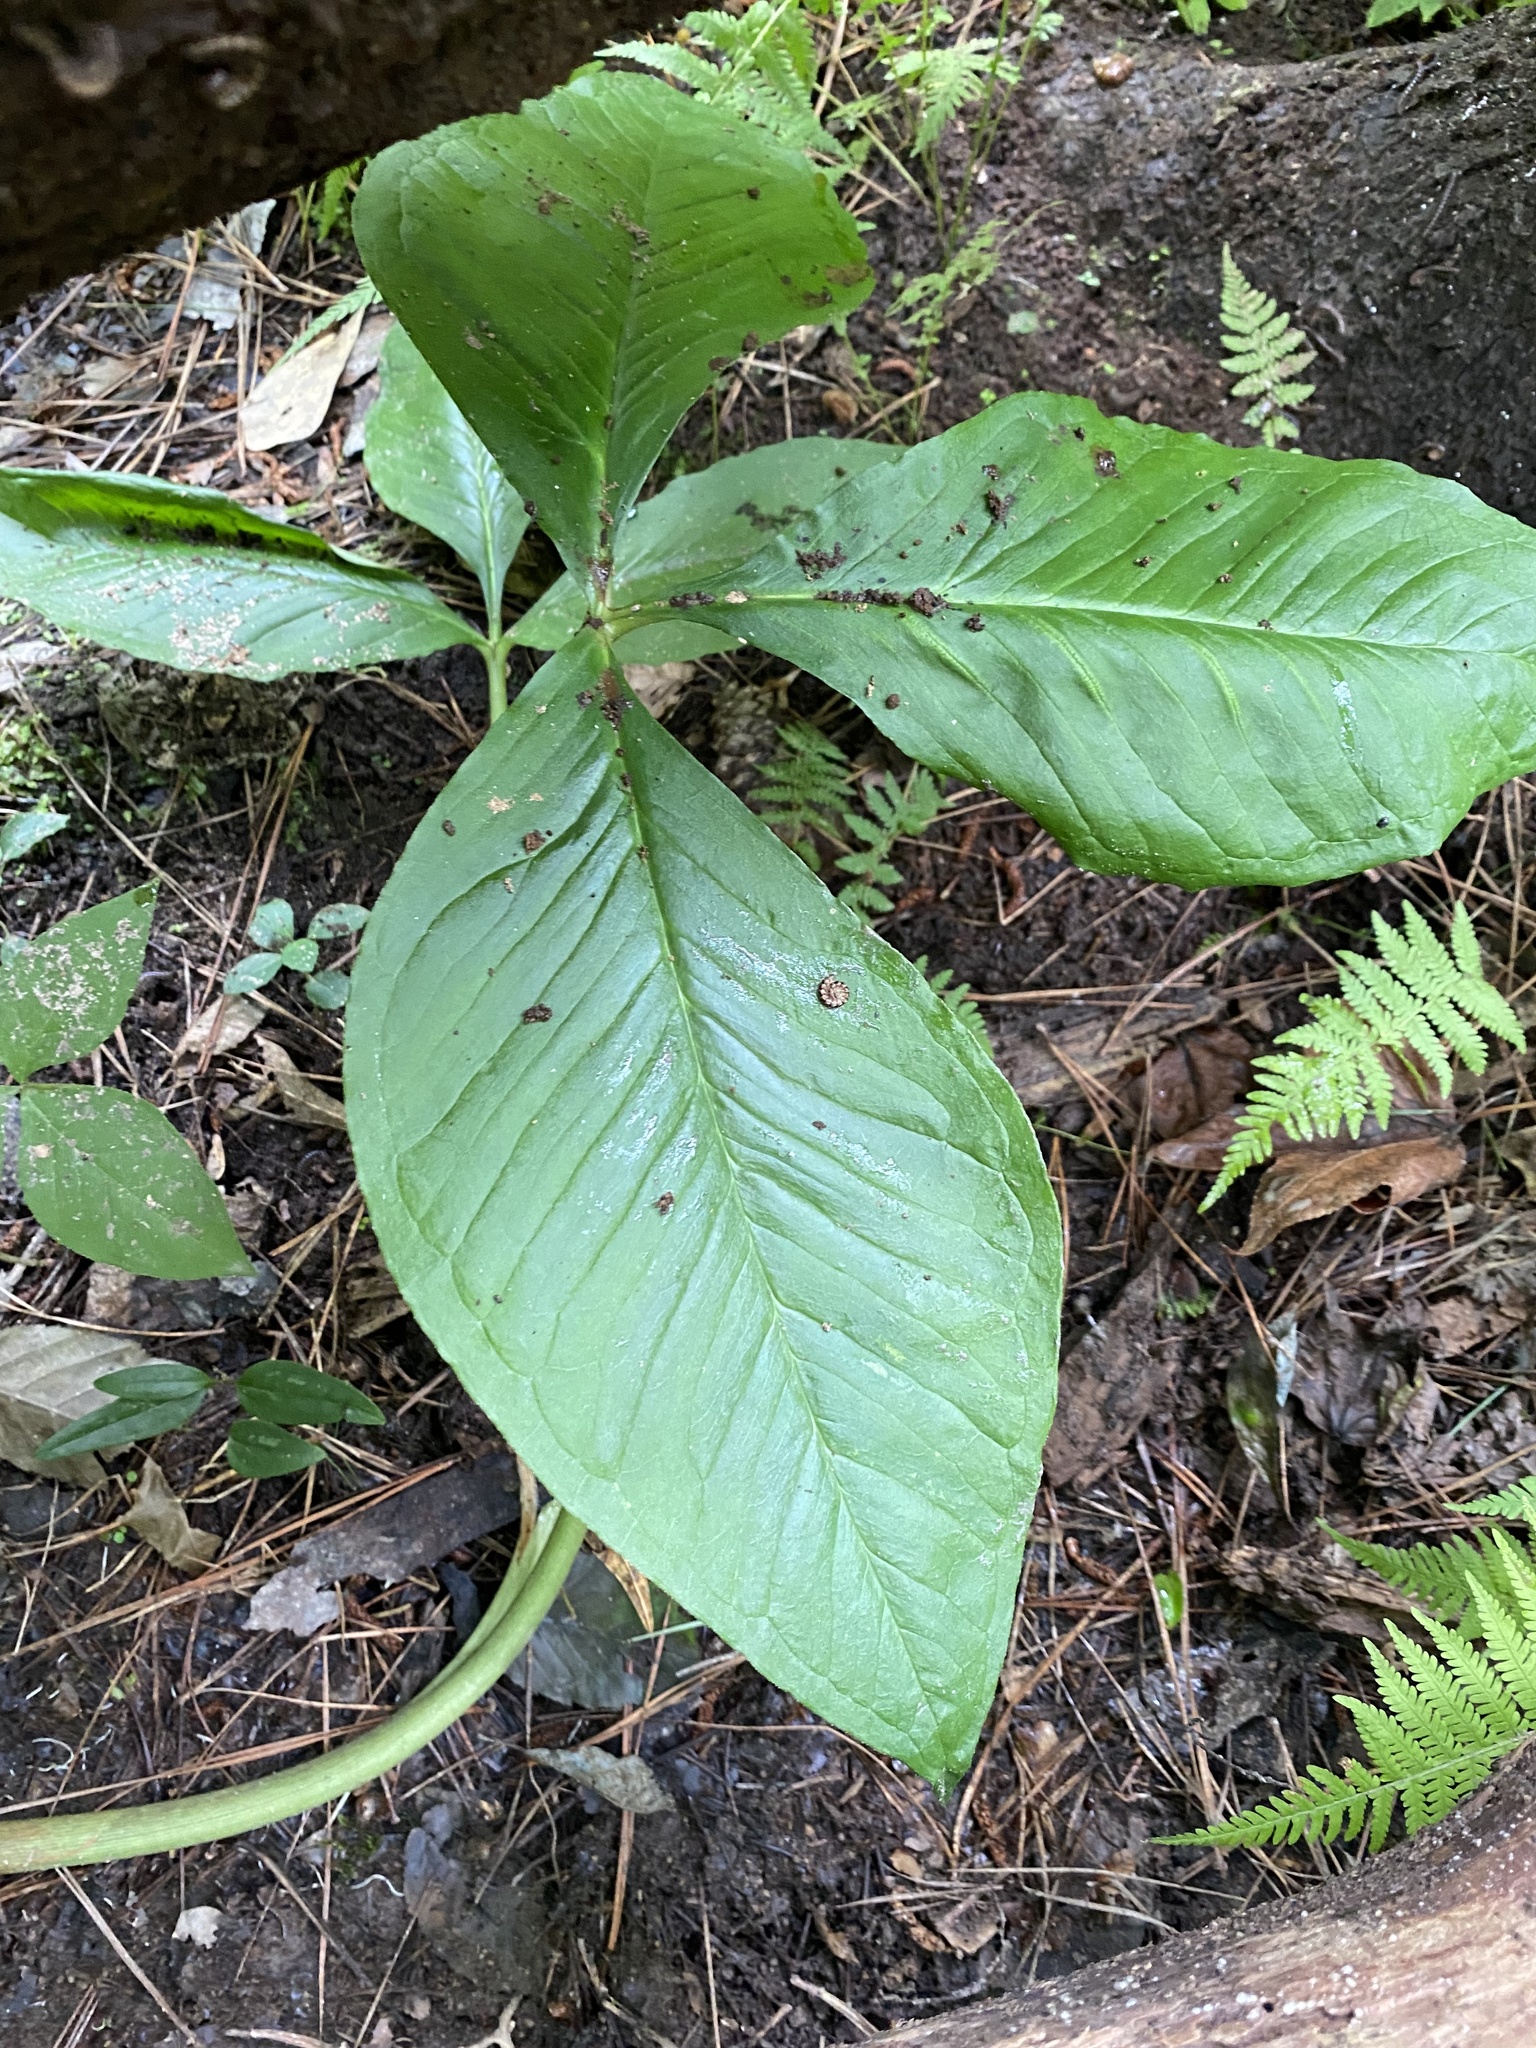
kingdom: Plantae
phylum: Tracheophyta
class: Liliopsida
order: Alismatales
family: Araceae
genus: Arisaema
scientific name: Arisaema triphyllum
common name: Jack-in-the-pulpit
